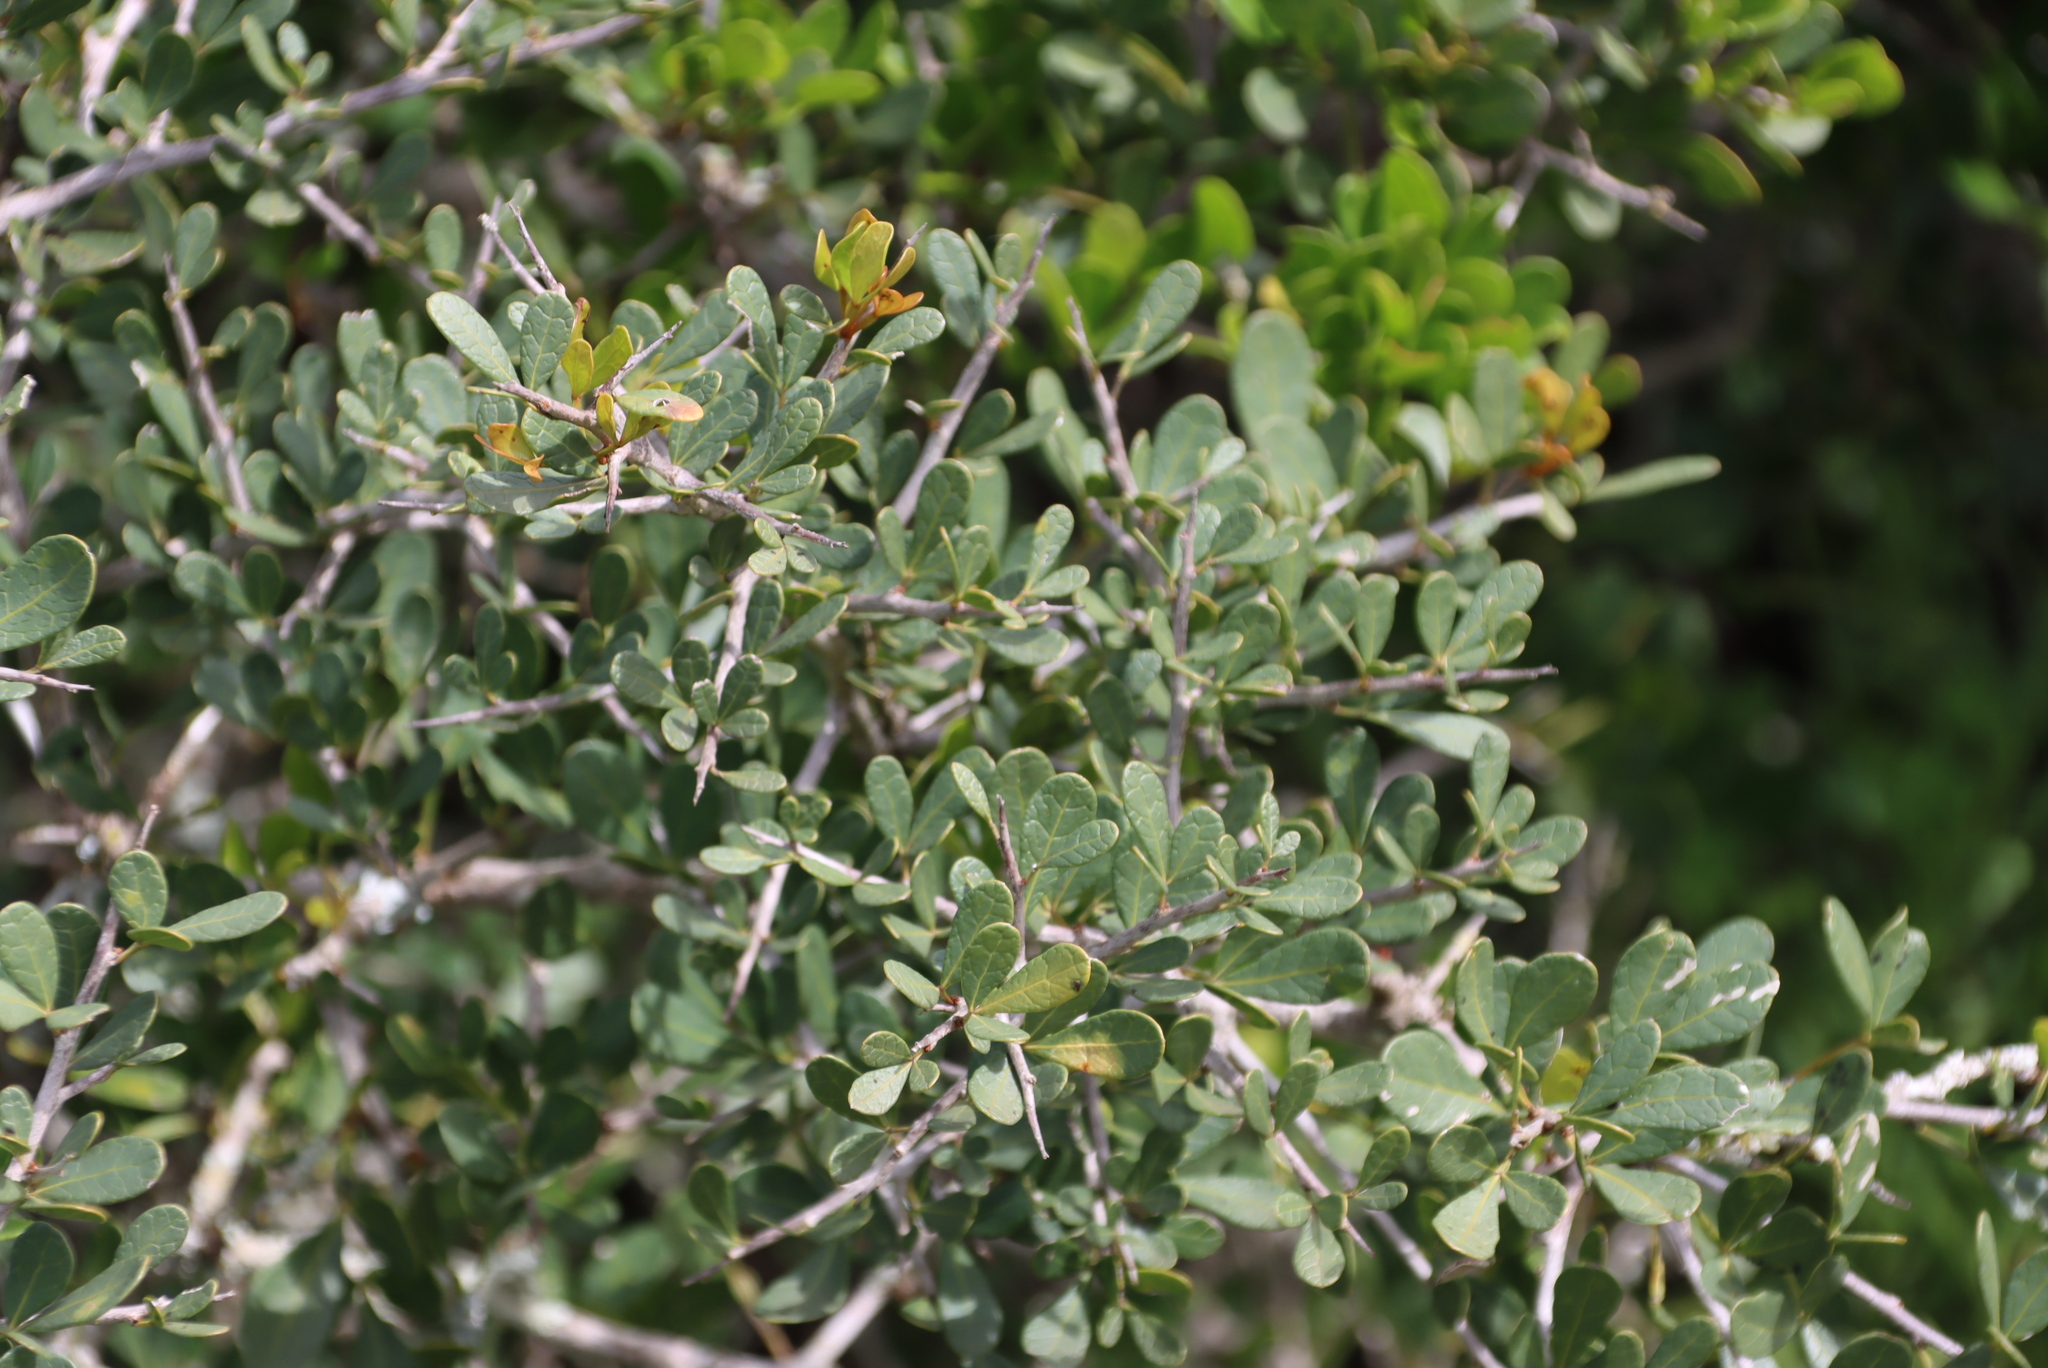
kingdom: Plantae
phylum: Tracheophyta
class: Magnoliopsida
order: Sapindales
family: Anacardiaceae
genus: Searsia
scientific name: Searsia pterota
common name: Winged currant
